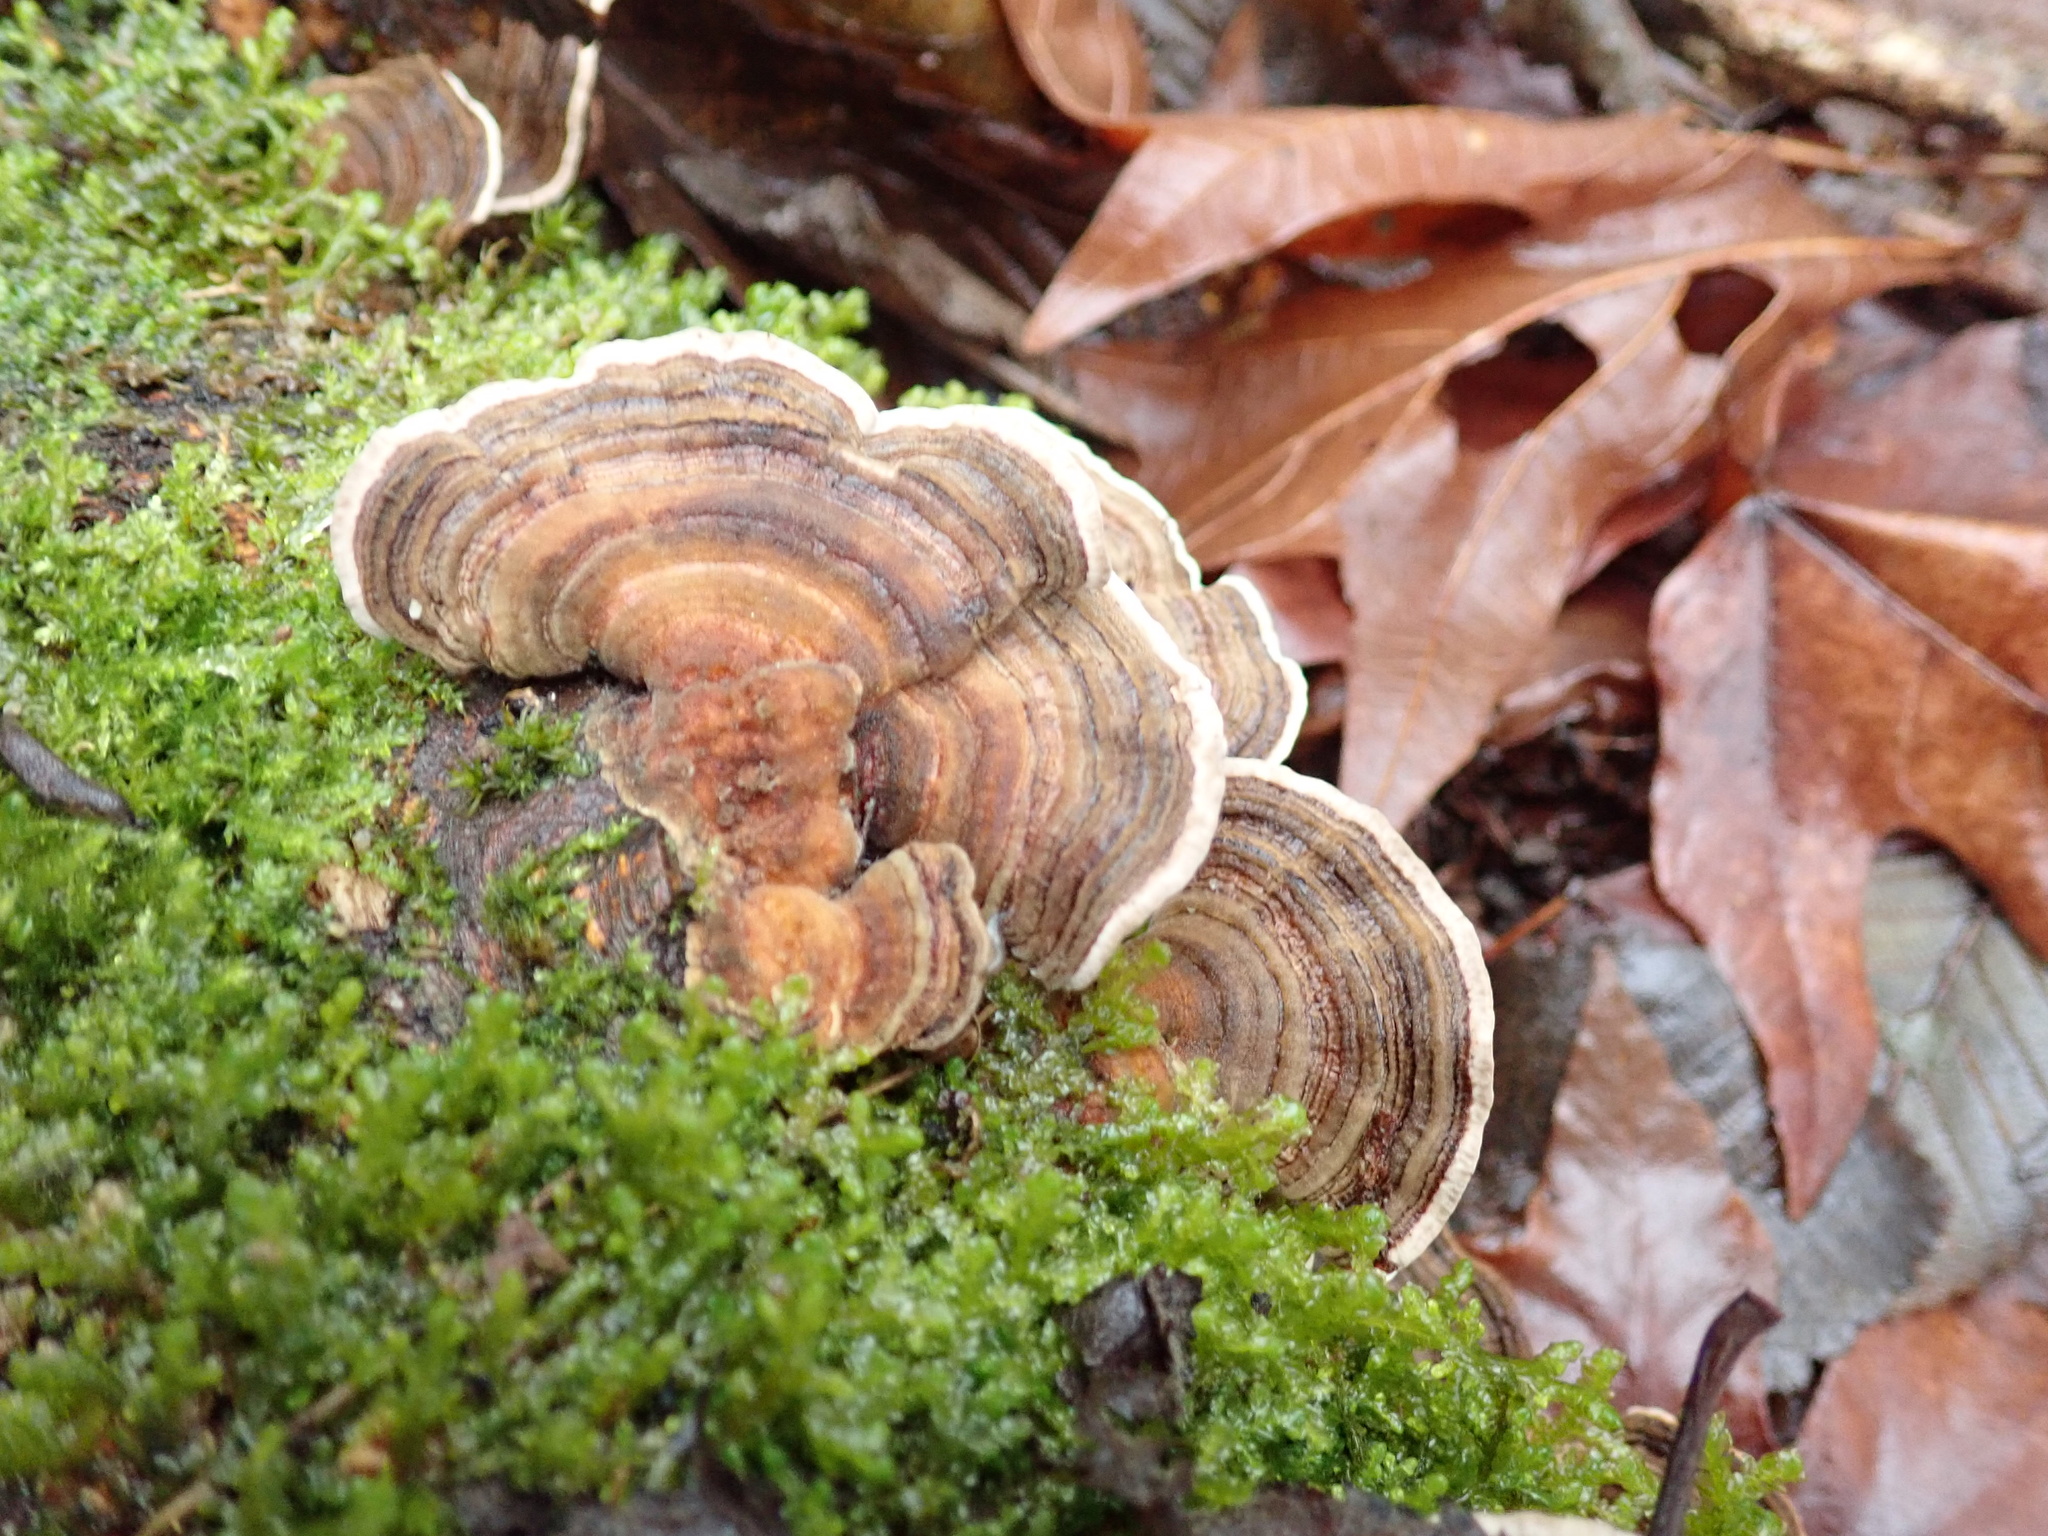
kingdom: Fungi
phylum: Basidiomycota
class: Agaricomycetes
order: Polyporales
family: Polyporaceae
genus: Trametes
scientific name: Trametes versicolor
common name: Turkeytail
